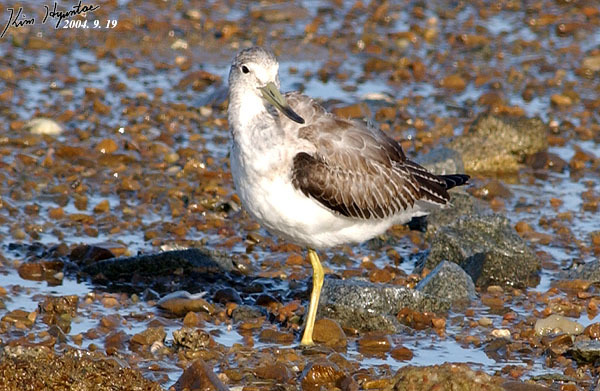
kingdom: Animalia
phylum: Chordata
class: Aves
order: Charadriiformes
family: Scolopacidae
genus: Tringa
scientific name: Tringa guttifer
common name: Nordmann's greenshank
